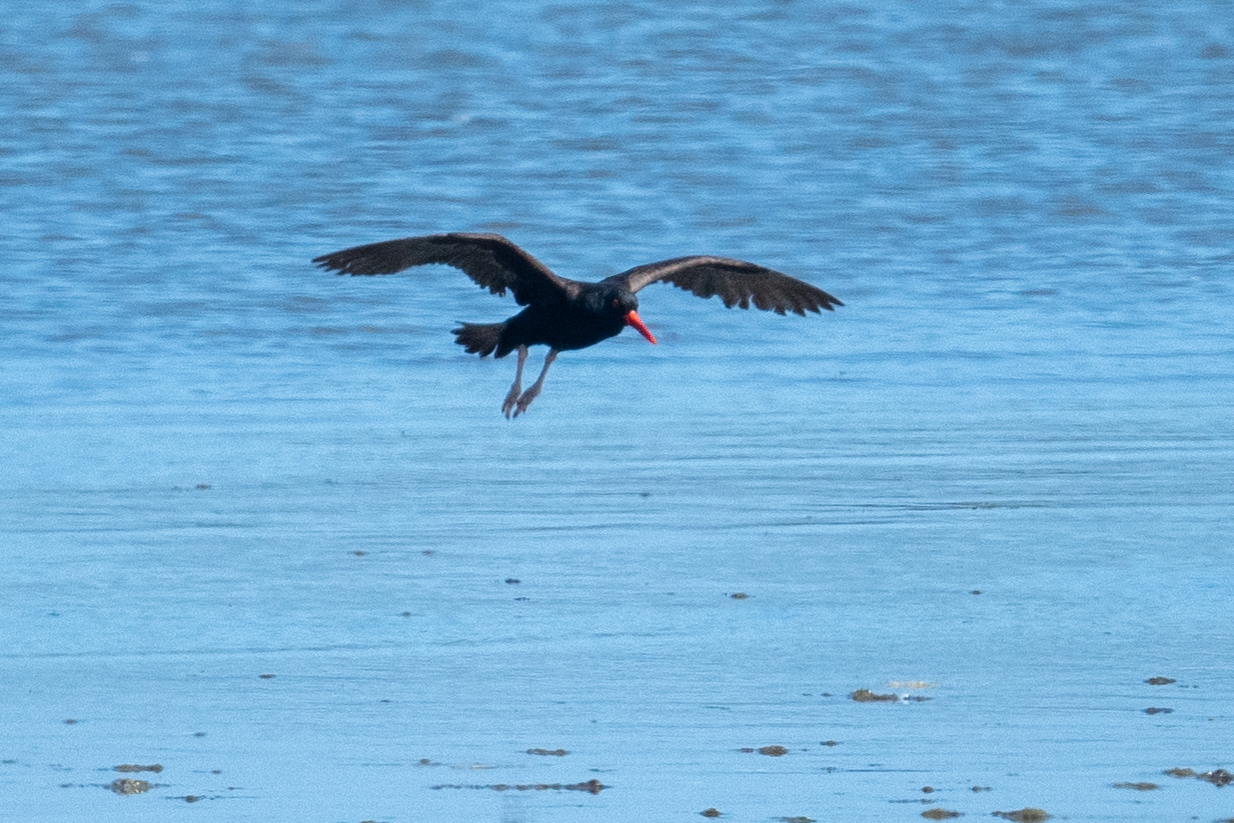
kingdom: Animalia
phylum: Chordata
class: Aves
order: Charadriiformes
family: Haematopodidae
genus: Haematopus
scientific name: Haematopus bachmani
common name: Black oystercatcher
